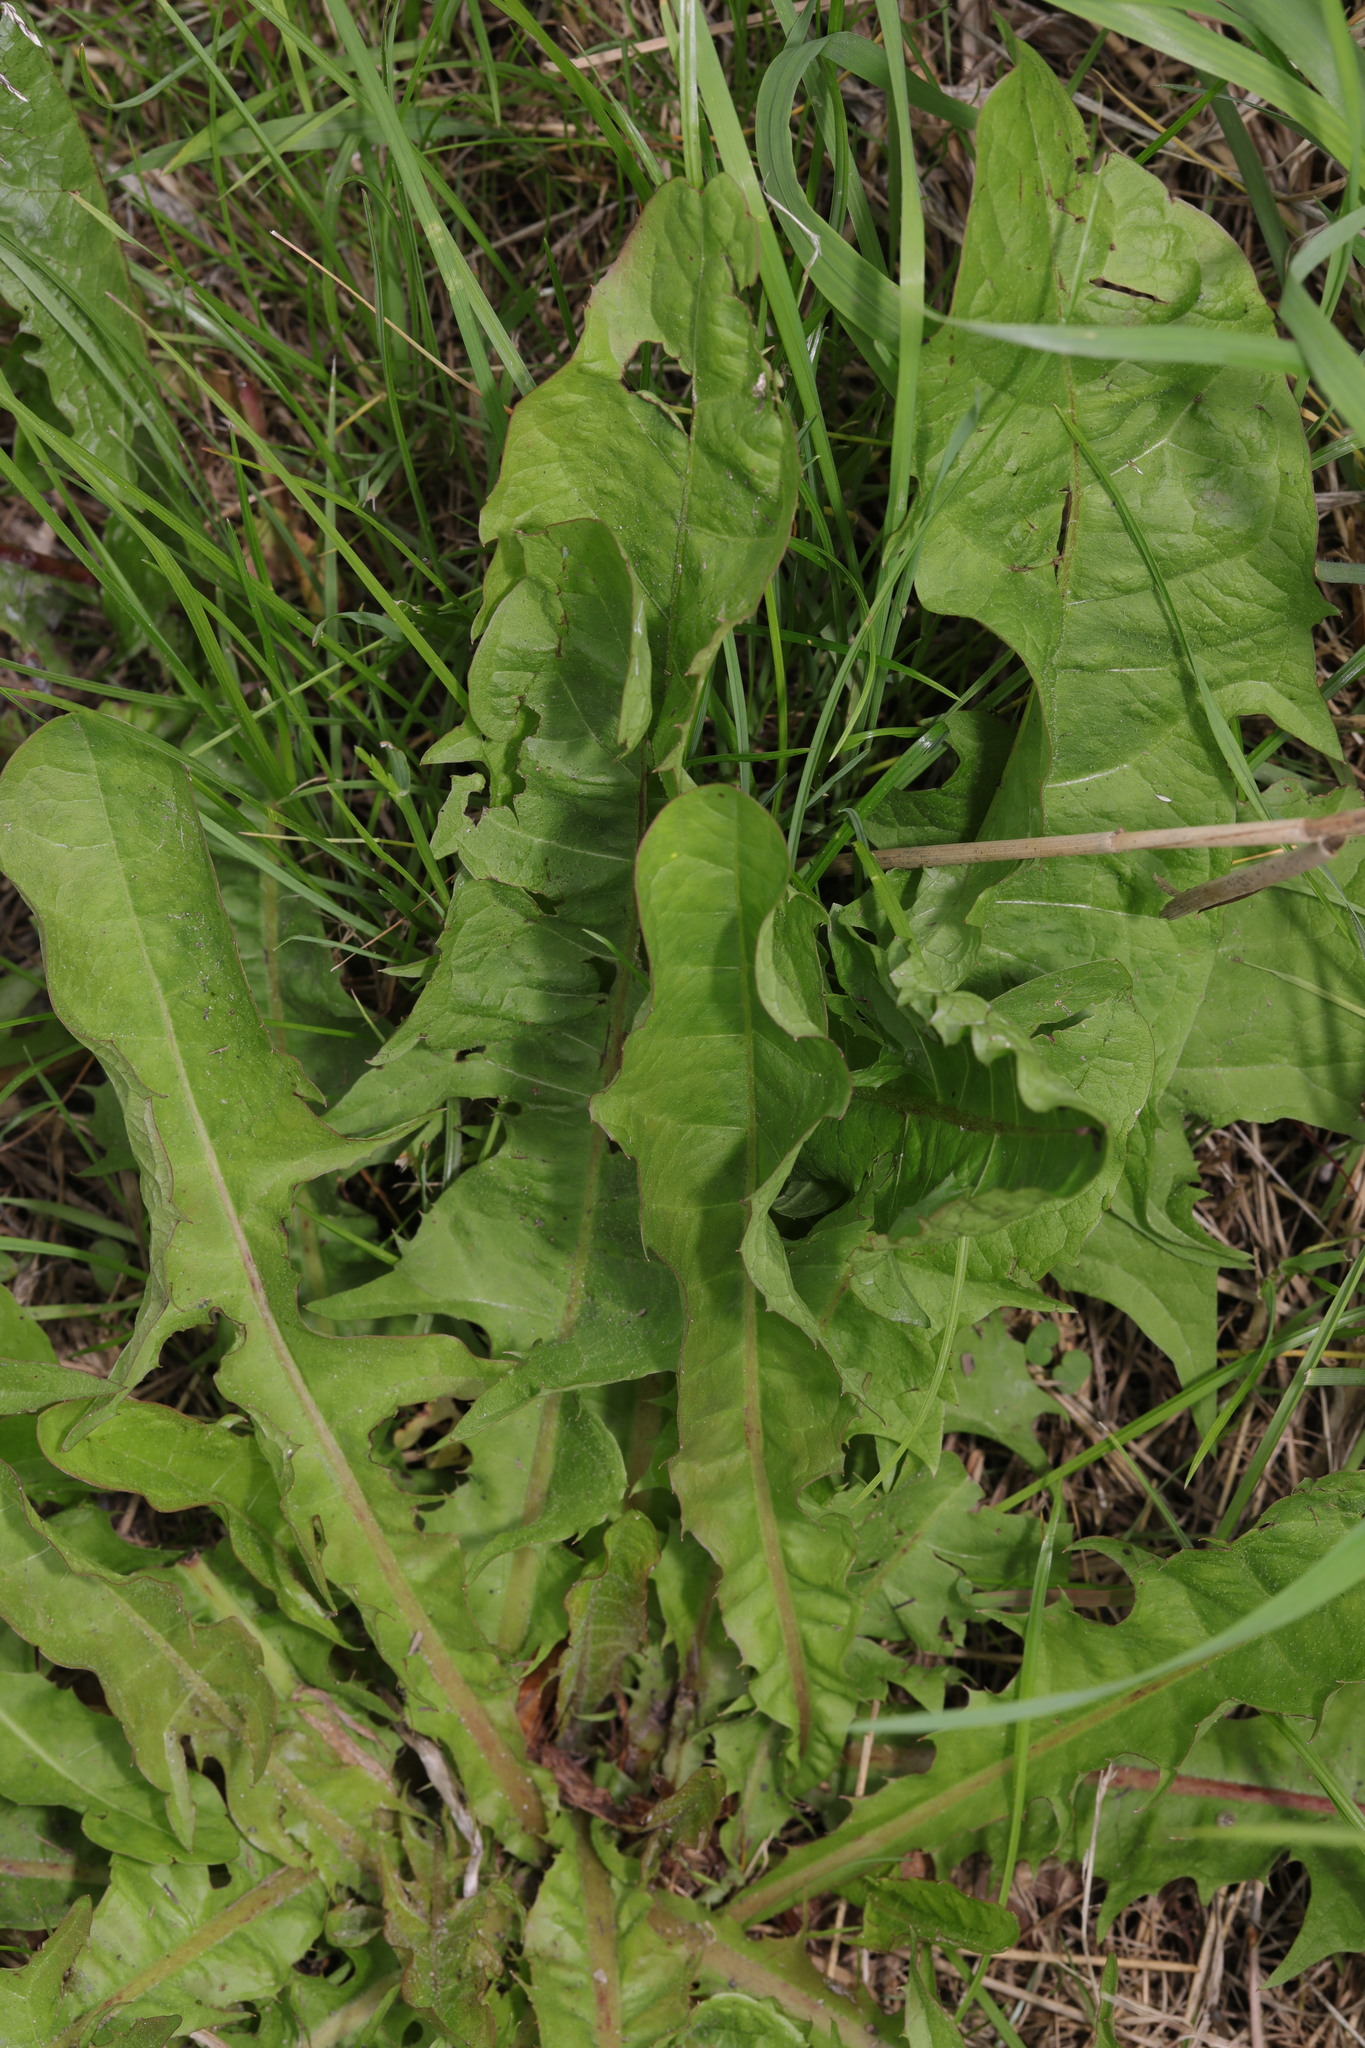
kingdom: Plantae
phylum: Tracheophyta
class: Magnoliopsida
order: Asterales
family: Asteraceae
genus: Taraxacum
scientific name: Taraxacum officinale
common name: Common dandelion
